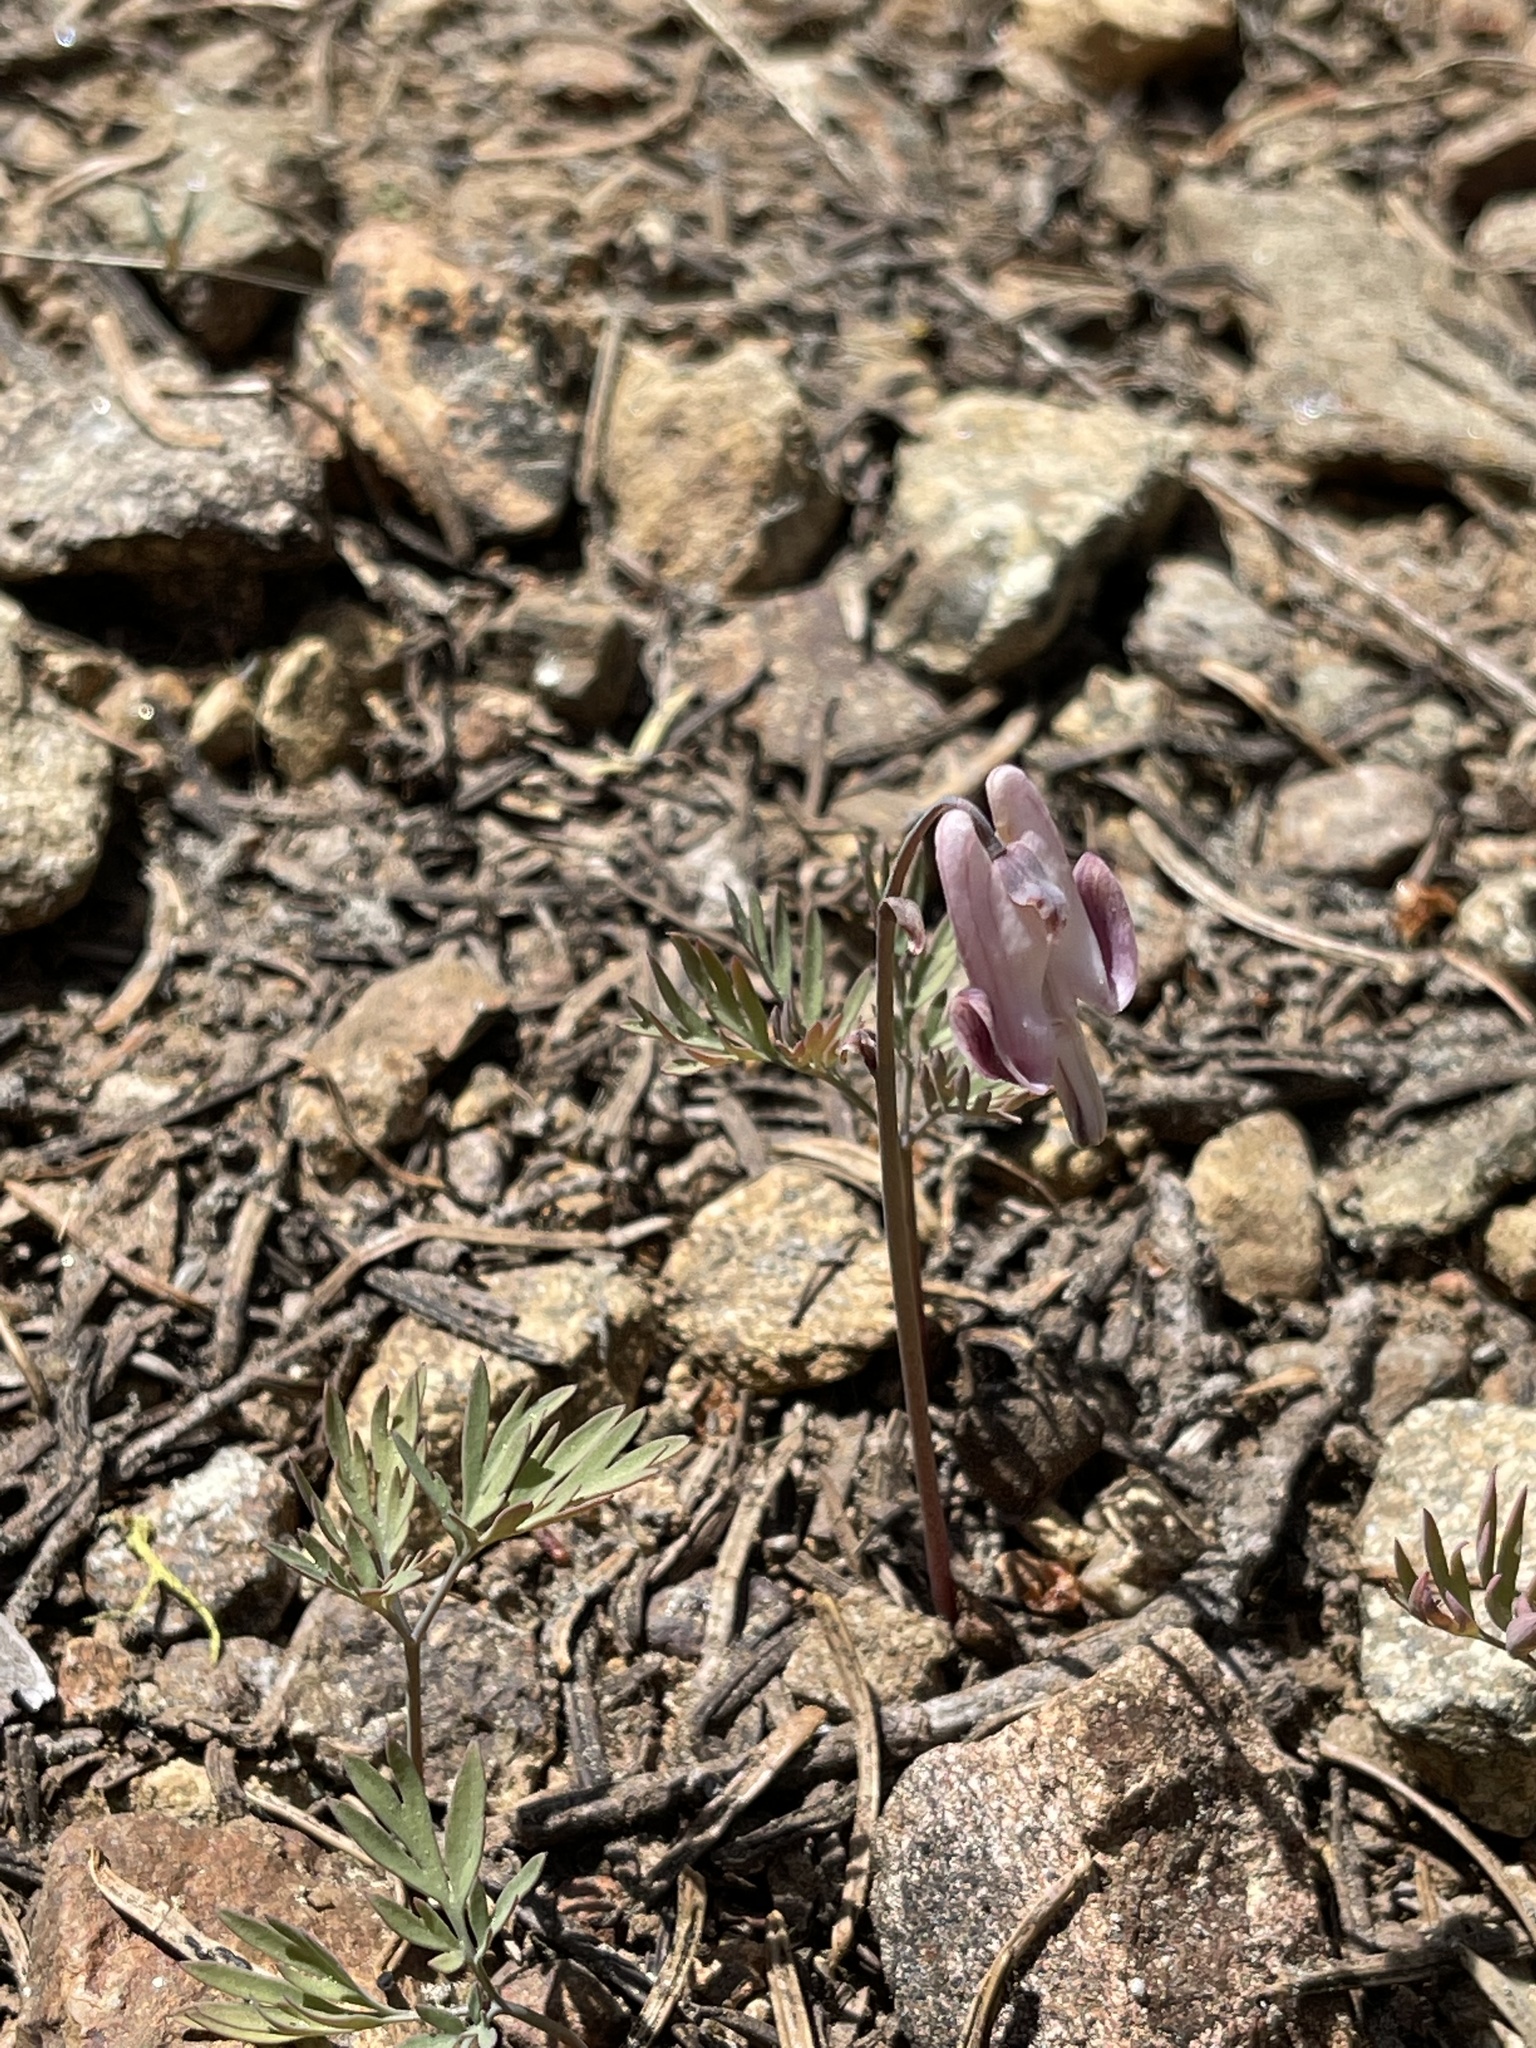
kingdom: Plantae
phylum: Tracheophyta
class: Magnoliopsida
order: Ranunculales
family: Papaveraceae
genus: Dicentra
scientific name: Dicentra pauciflora
